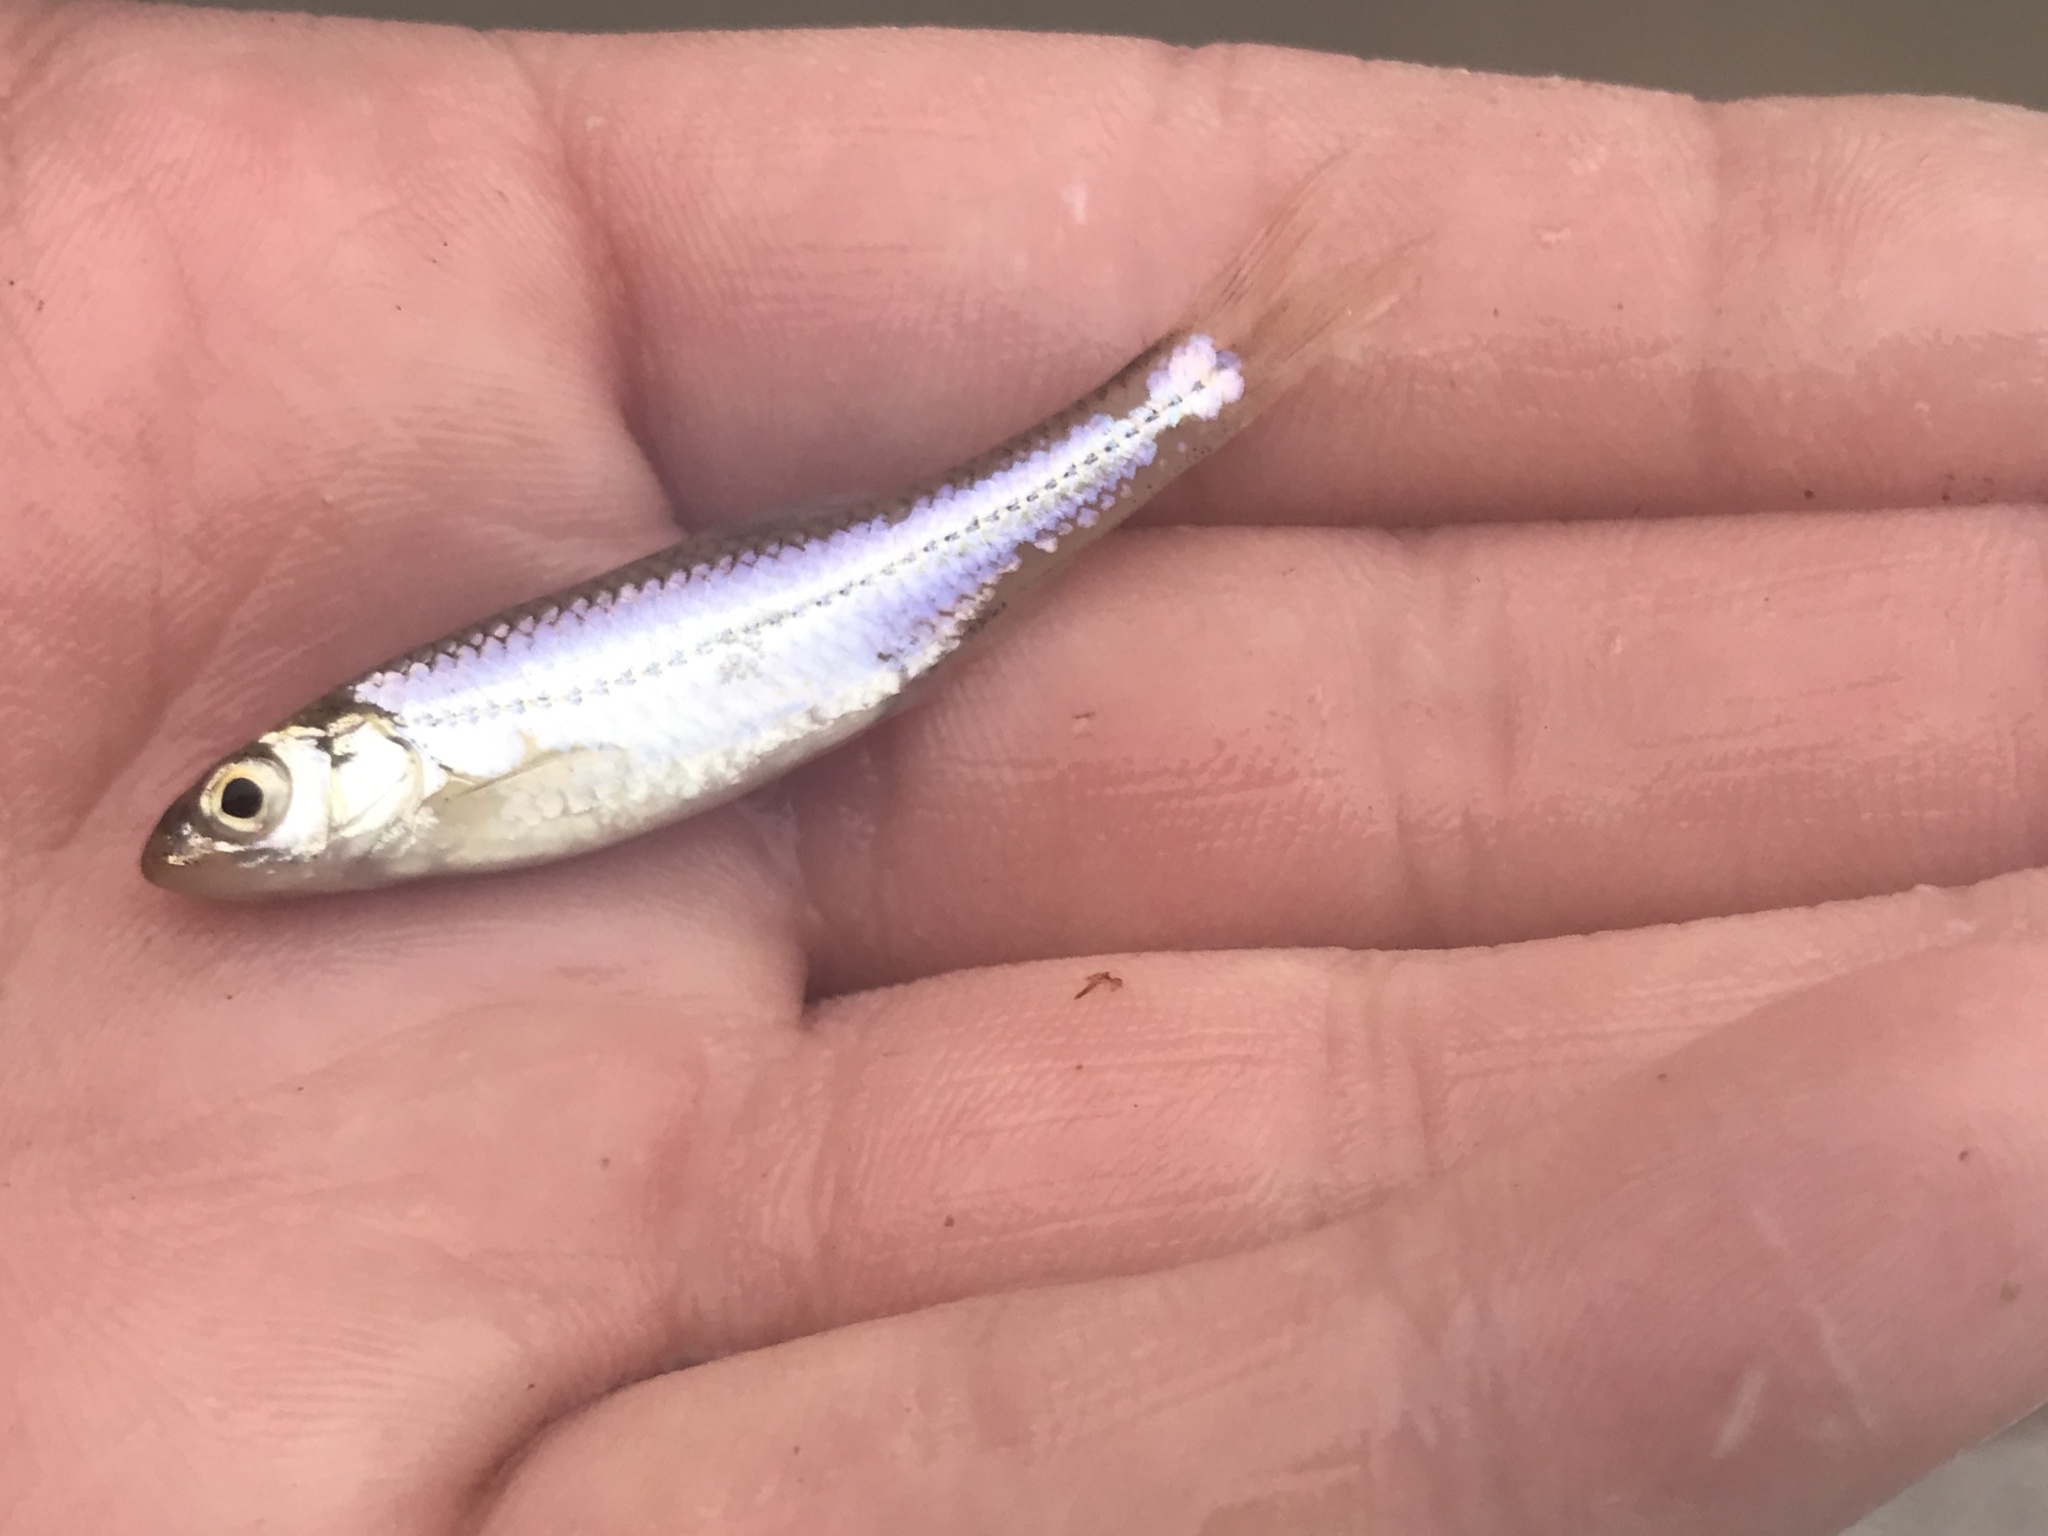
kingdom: Animalia
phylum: Chordata
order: Cypriniformes
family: Cyprinidae
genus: Notropis
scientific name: Notropis
